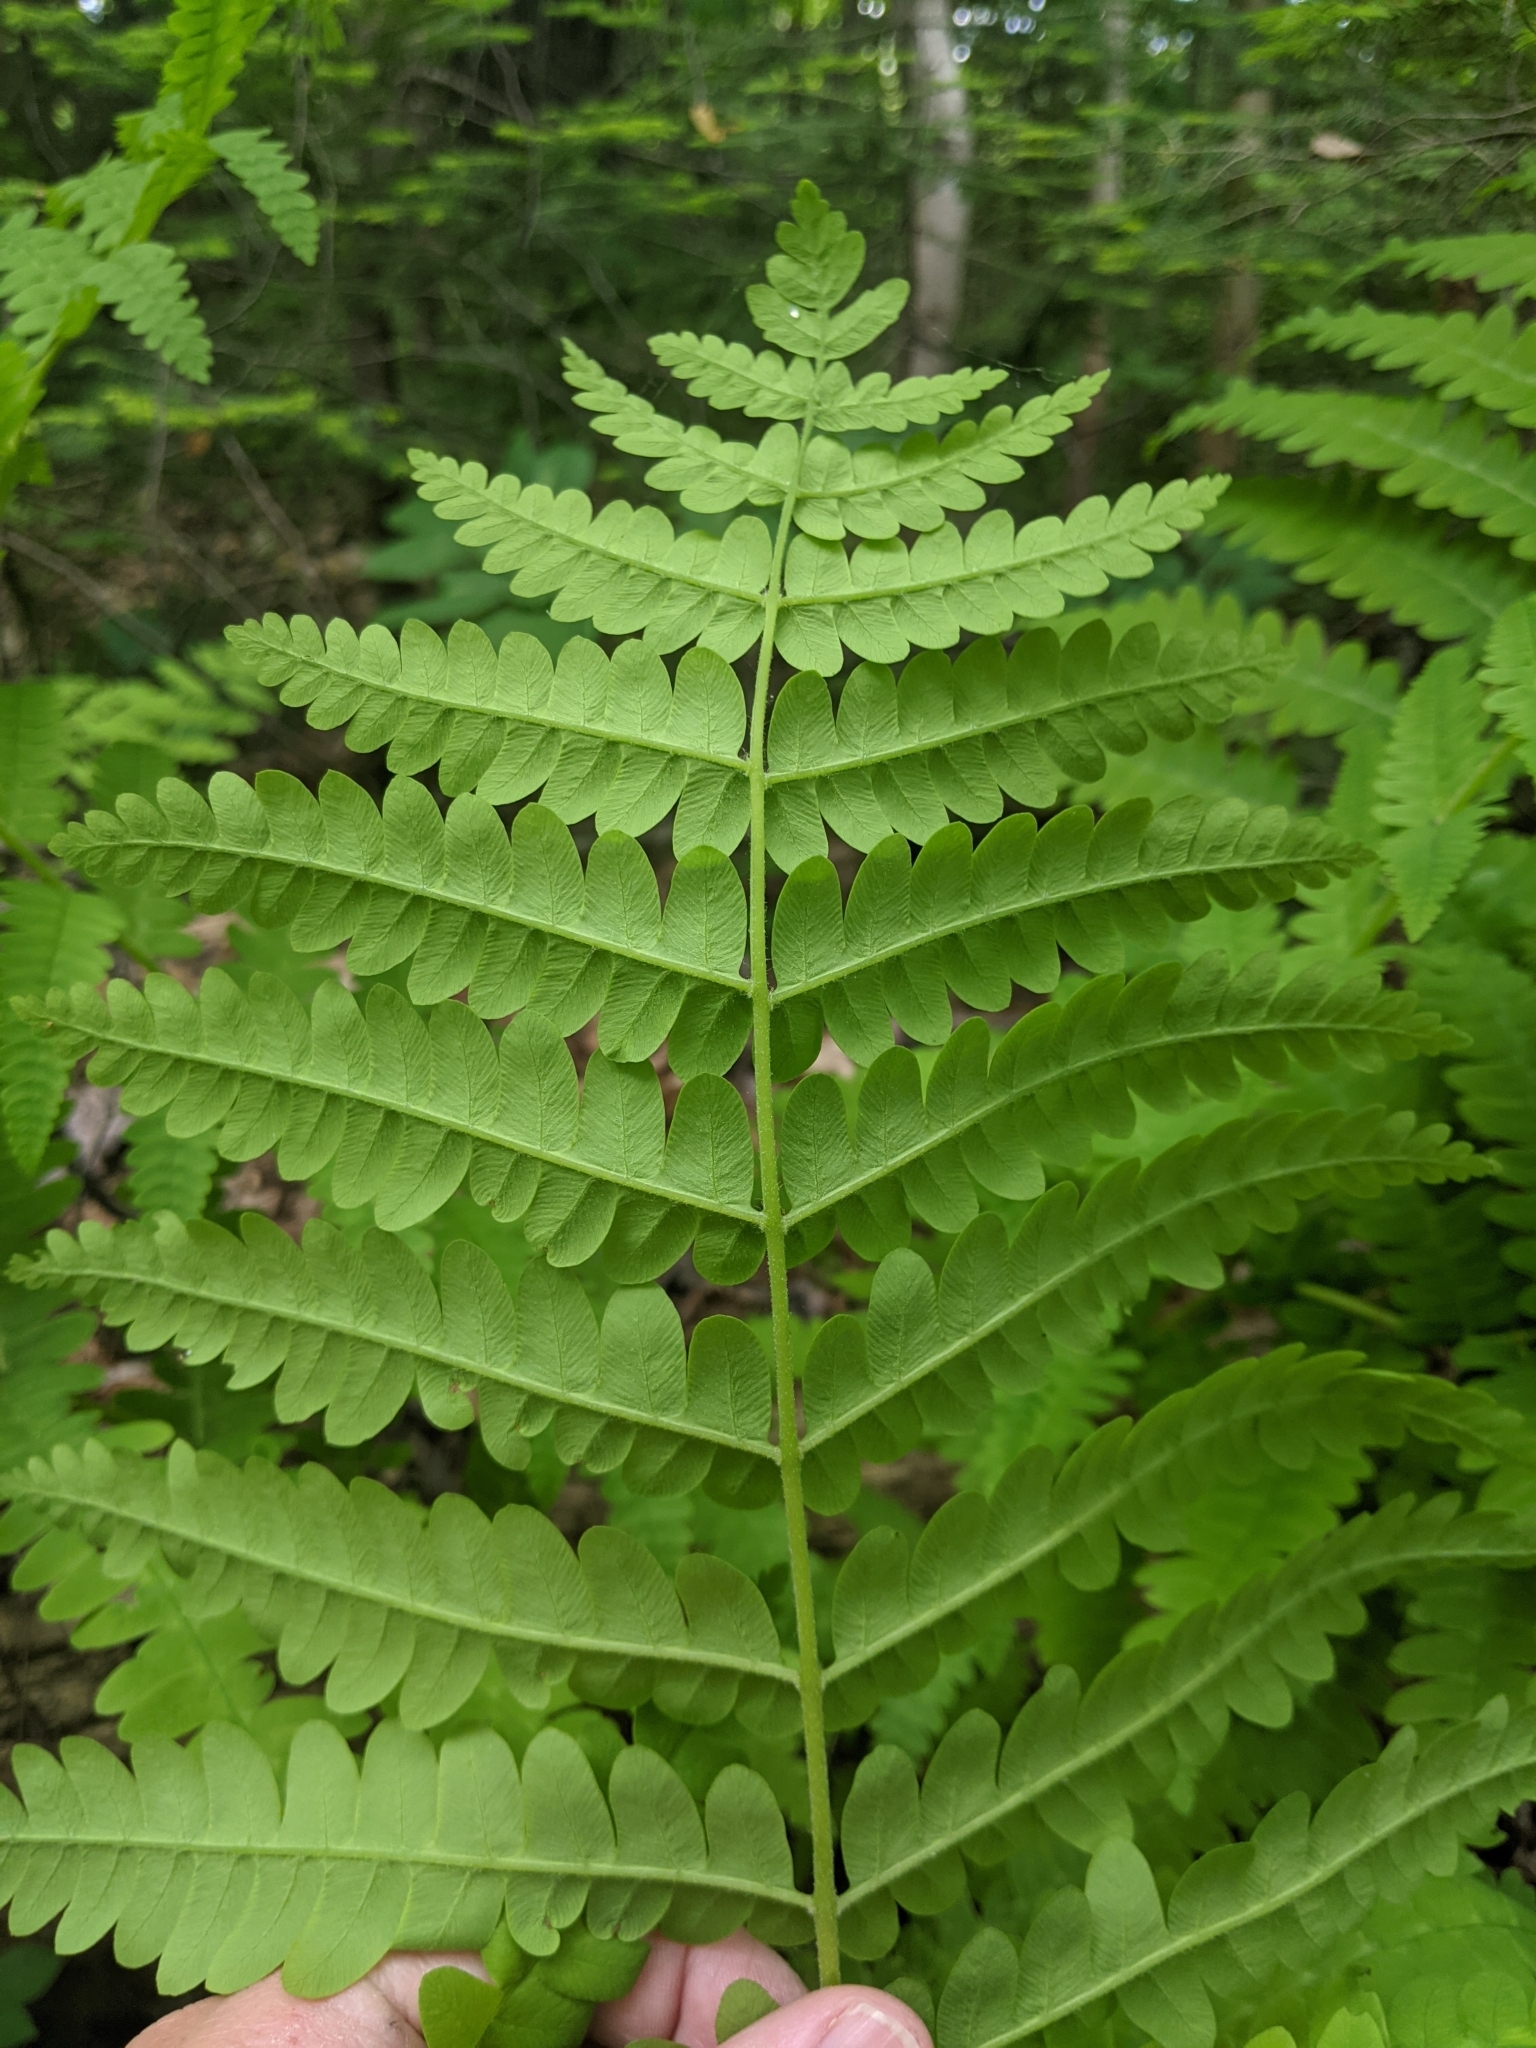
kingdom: Plantae
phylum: Tracheophyta
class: Polypodiopsida
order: Osmundales
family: Osmundaceae
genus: Osmundastrum
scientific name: Osmundastrum cinnamomeum
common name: Cinnamon fern
